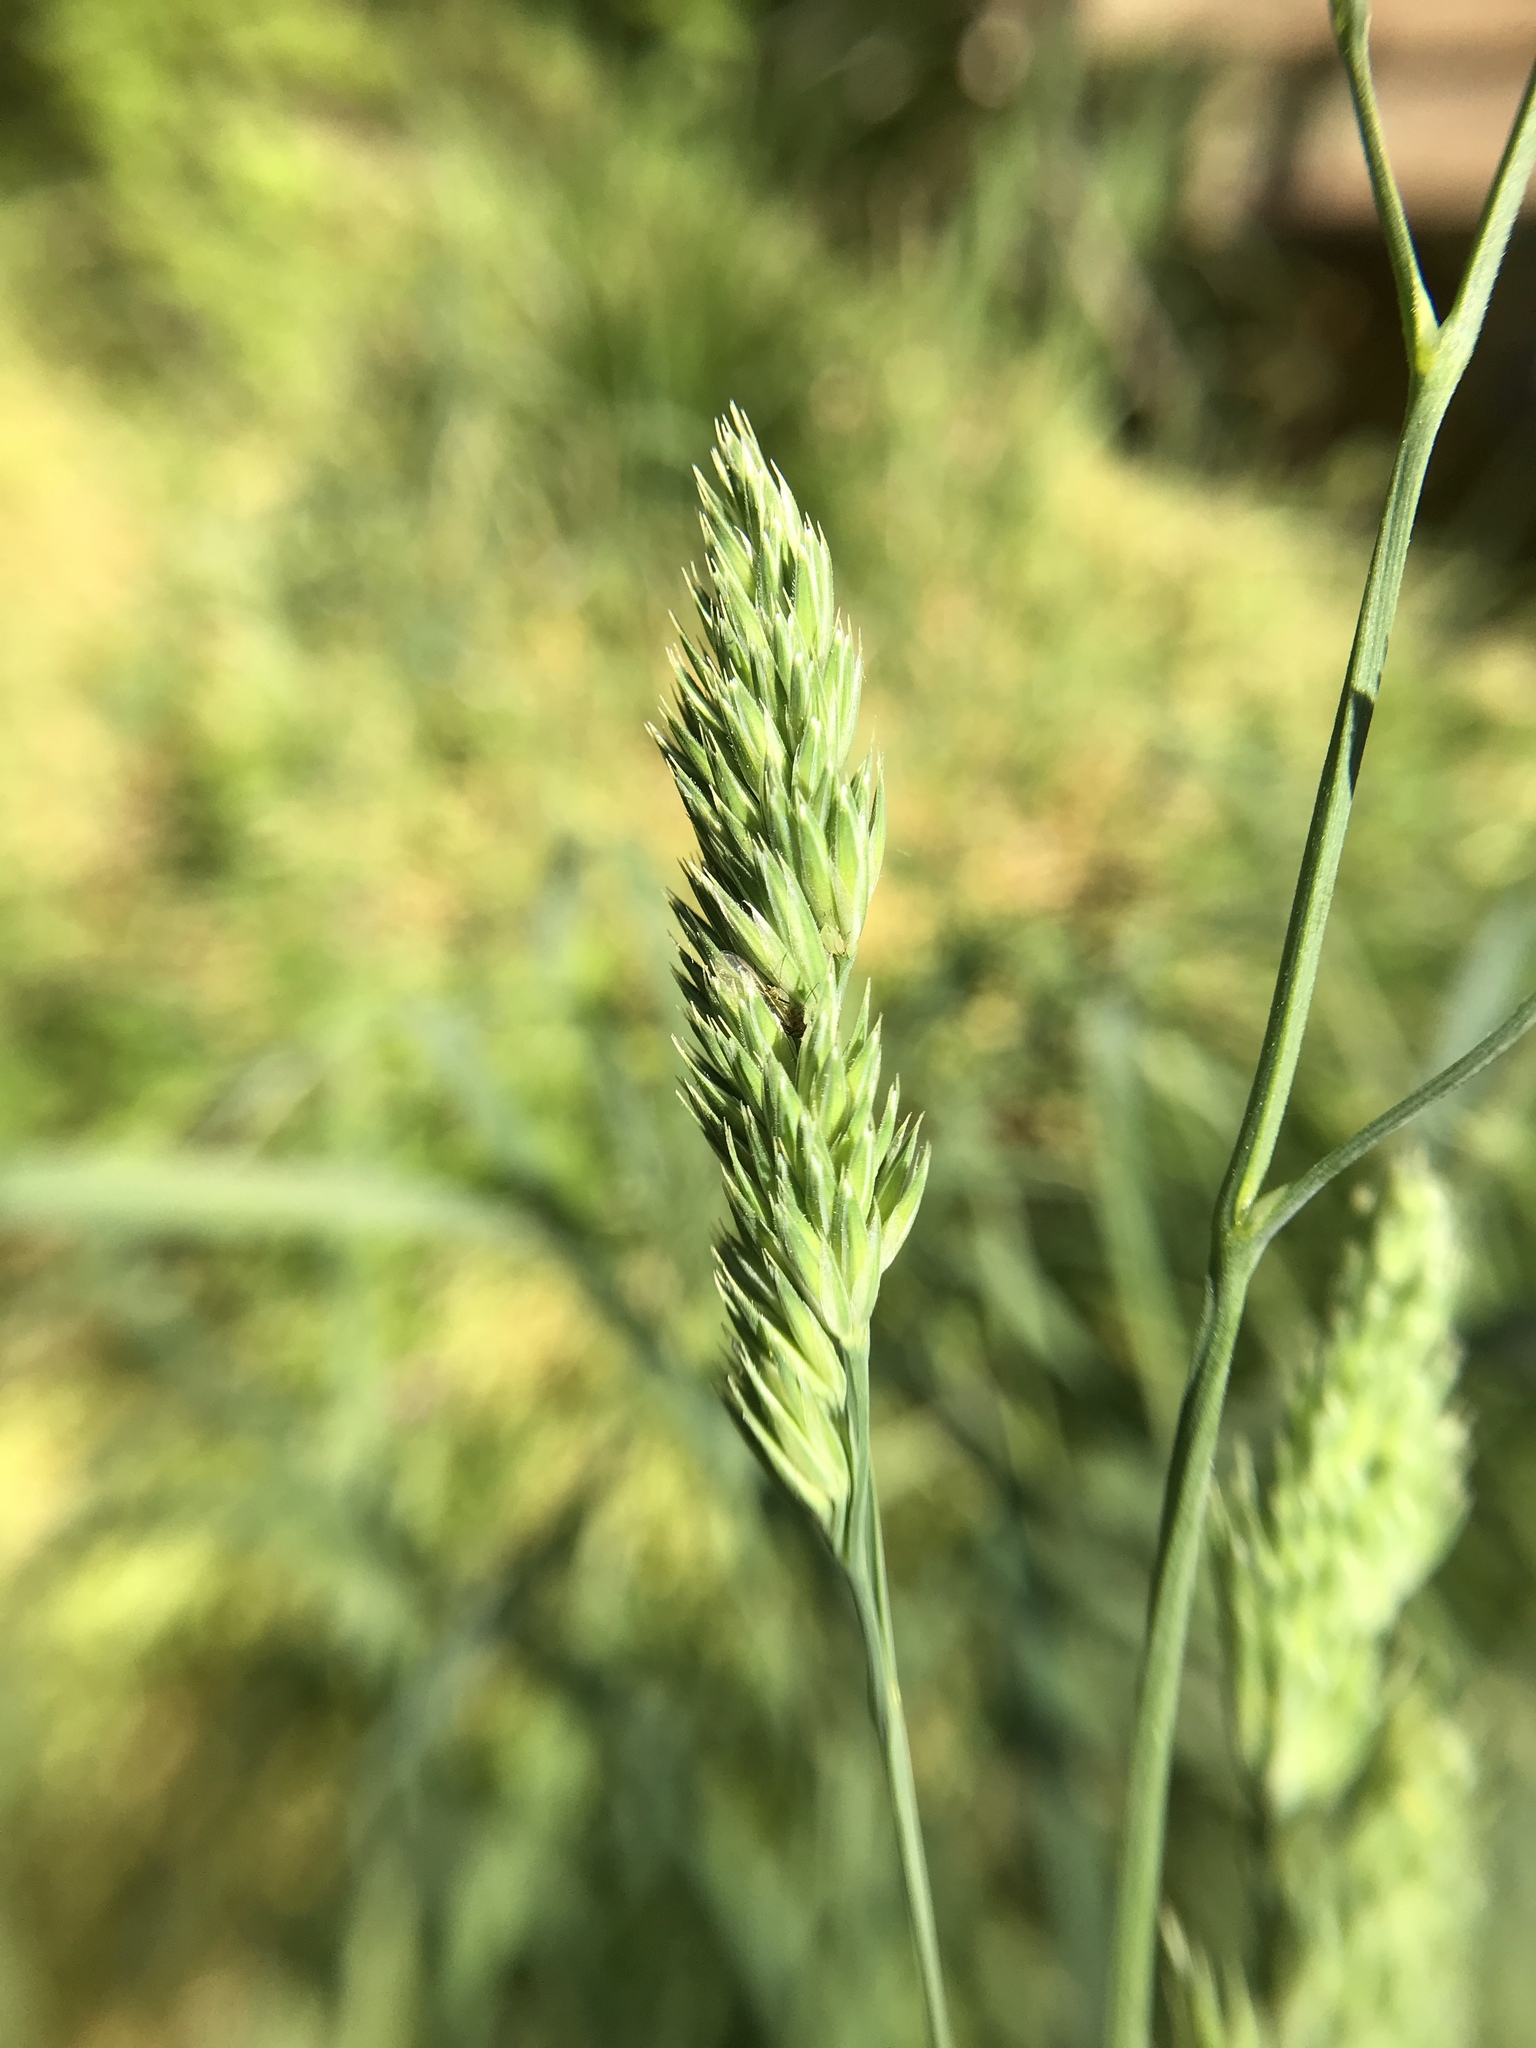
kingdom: Plantae
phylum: Tracheophyta
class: Liliopsida
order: Poales
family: Poaceae
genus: Dactylis
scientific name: Dactylis glomerata
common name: Orchardgrass
